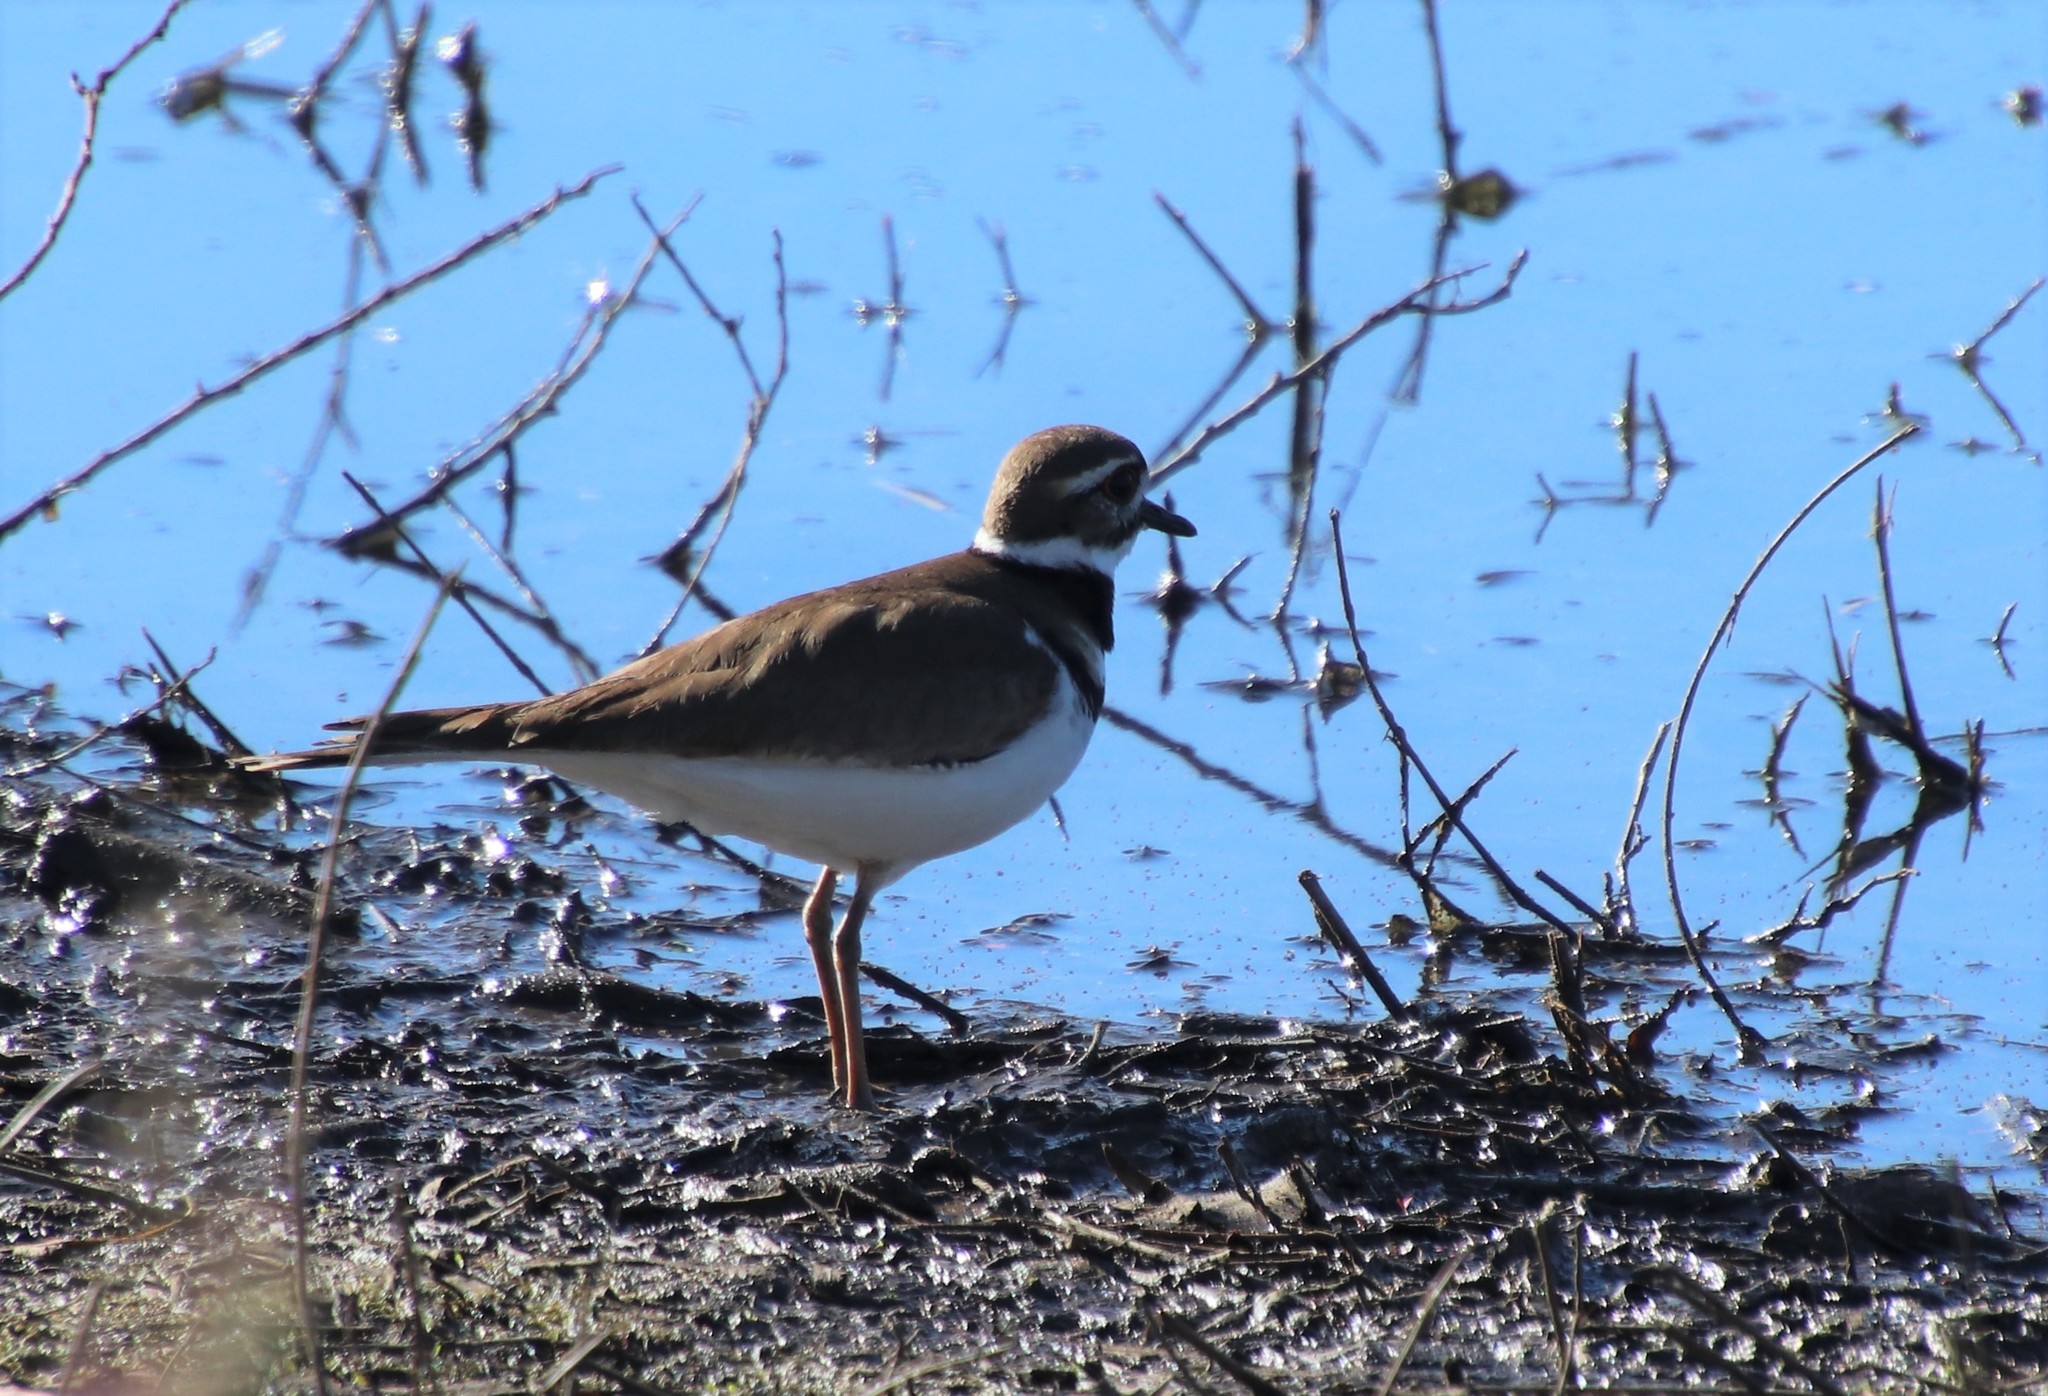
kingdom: Animalia
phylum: Chordata
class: Aves
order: Charadriiformes
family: Charadriidae
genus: Charadrius
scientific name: Charadrius vociferus
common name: Killdeer
